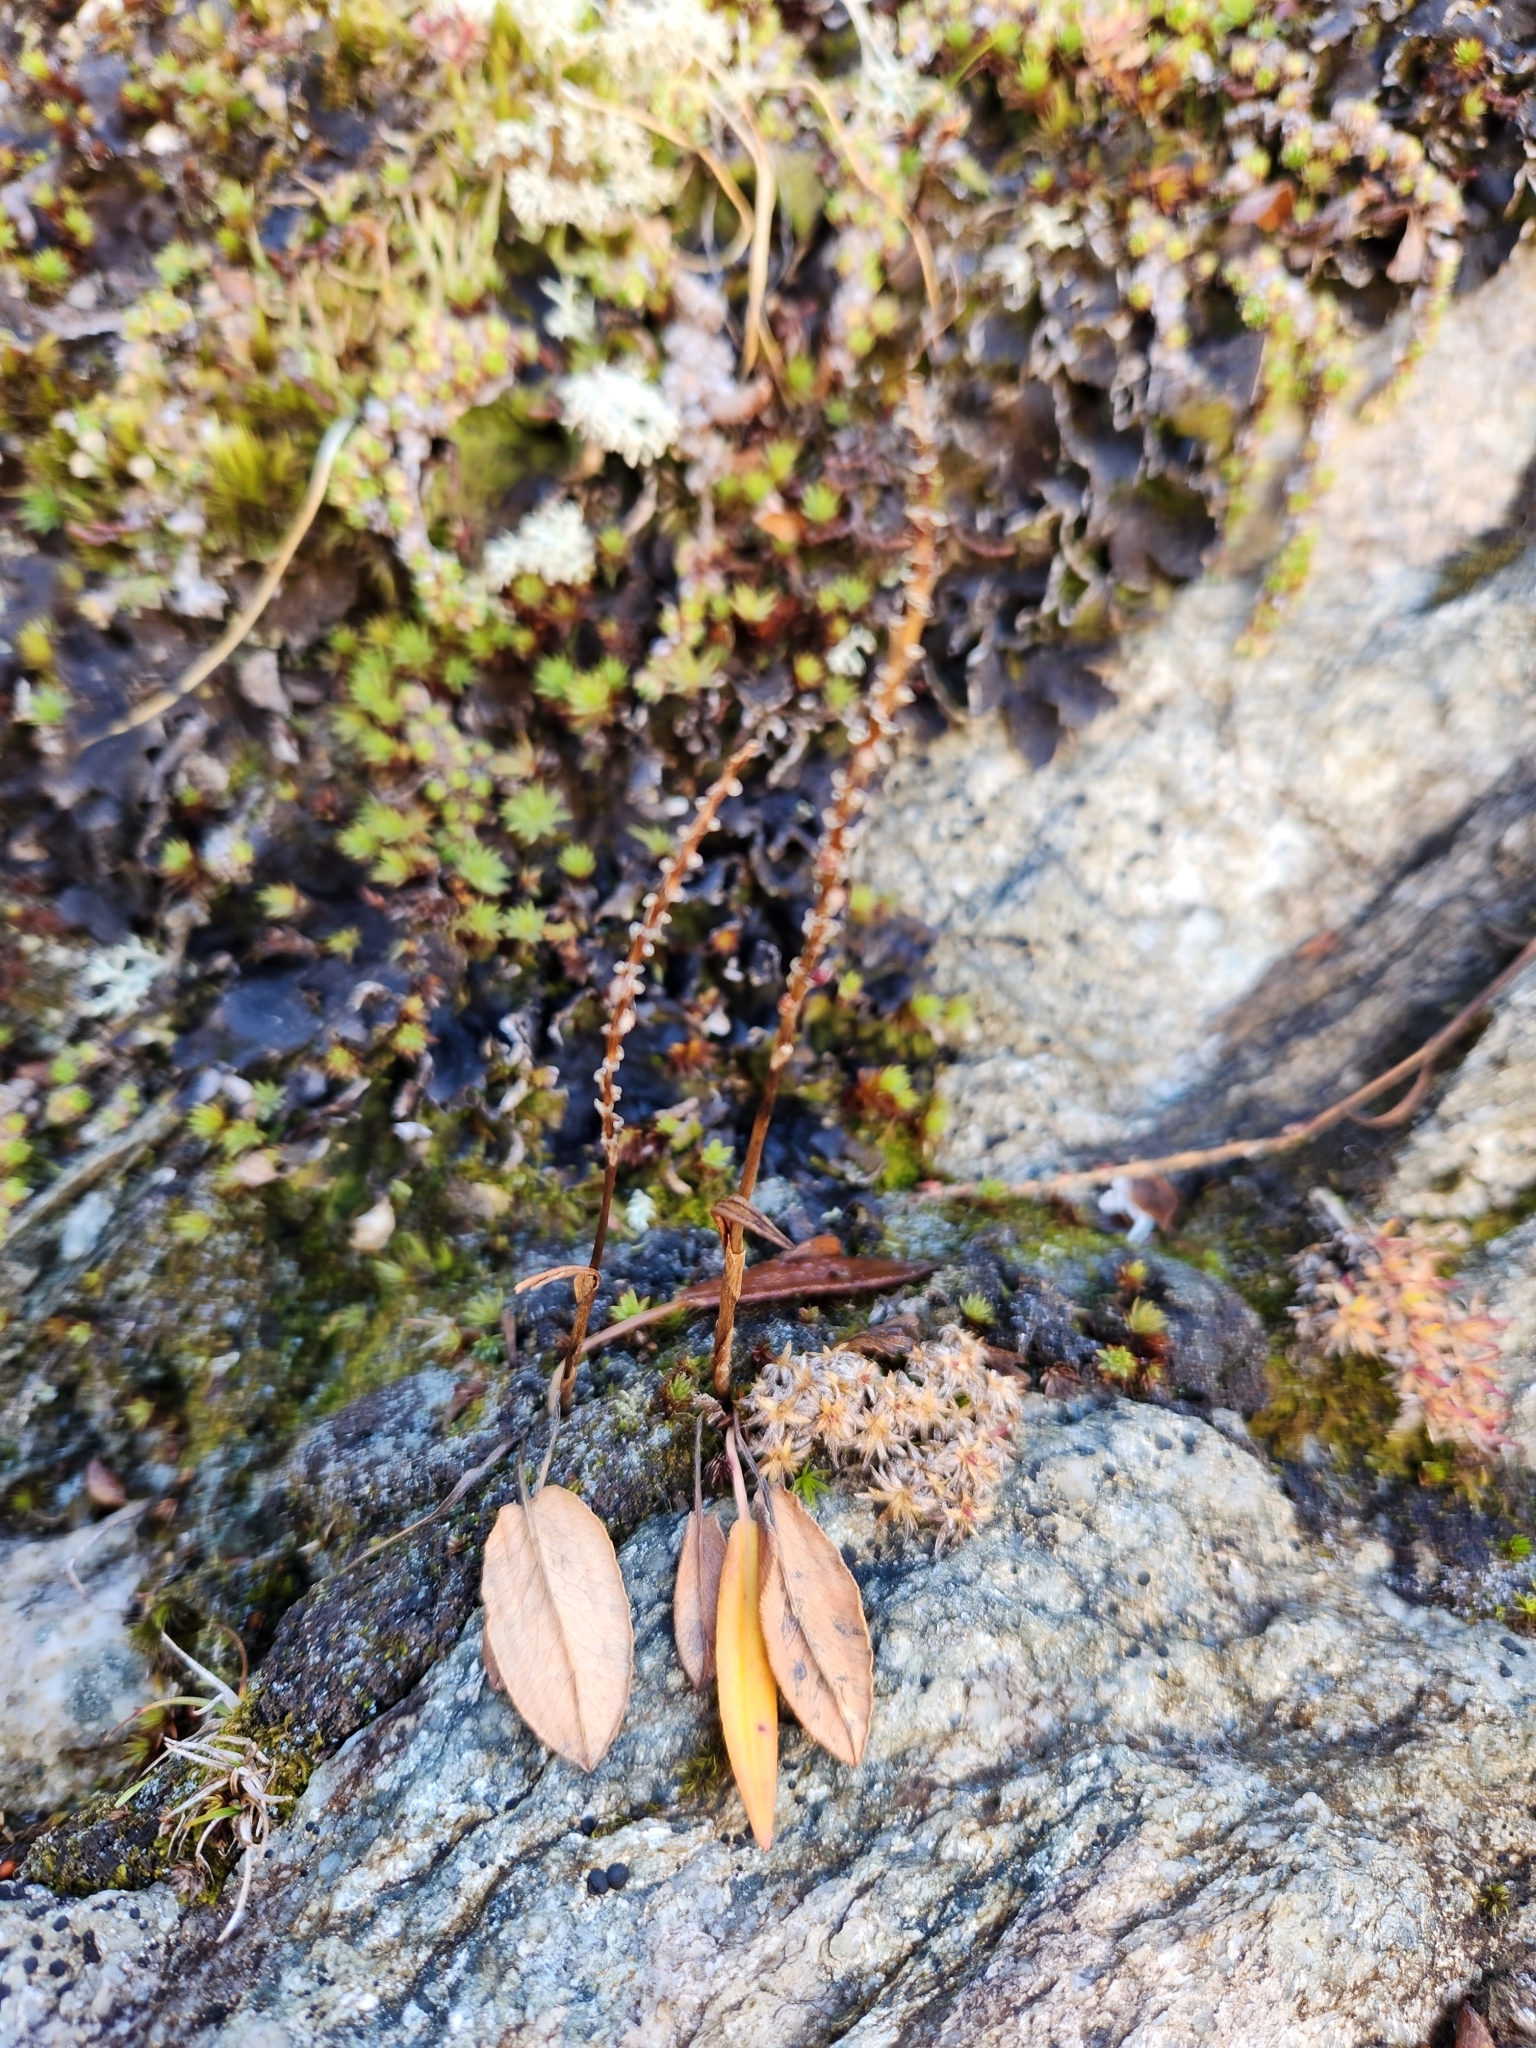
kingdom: Plantae
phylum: Tracheophyta
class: Magnoliopsida
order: Caryophyllales
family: Polygonaceae
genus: Bistorta
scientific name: Bistorta vivipara
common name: Alpine bistort
